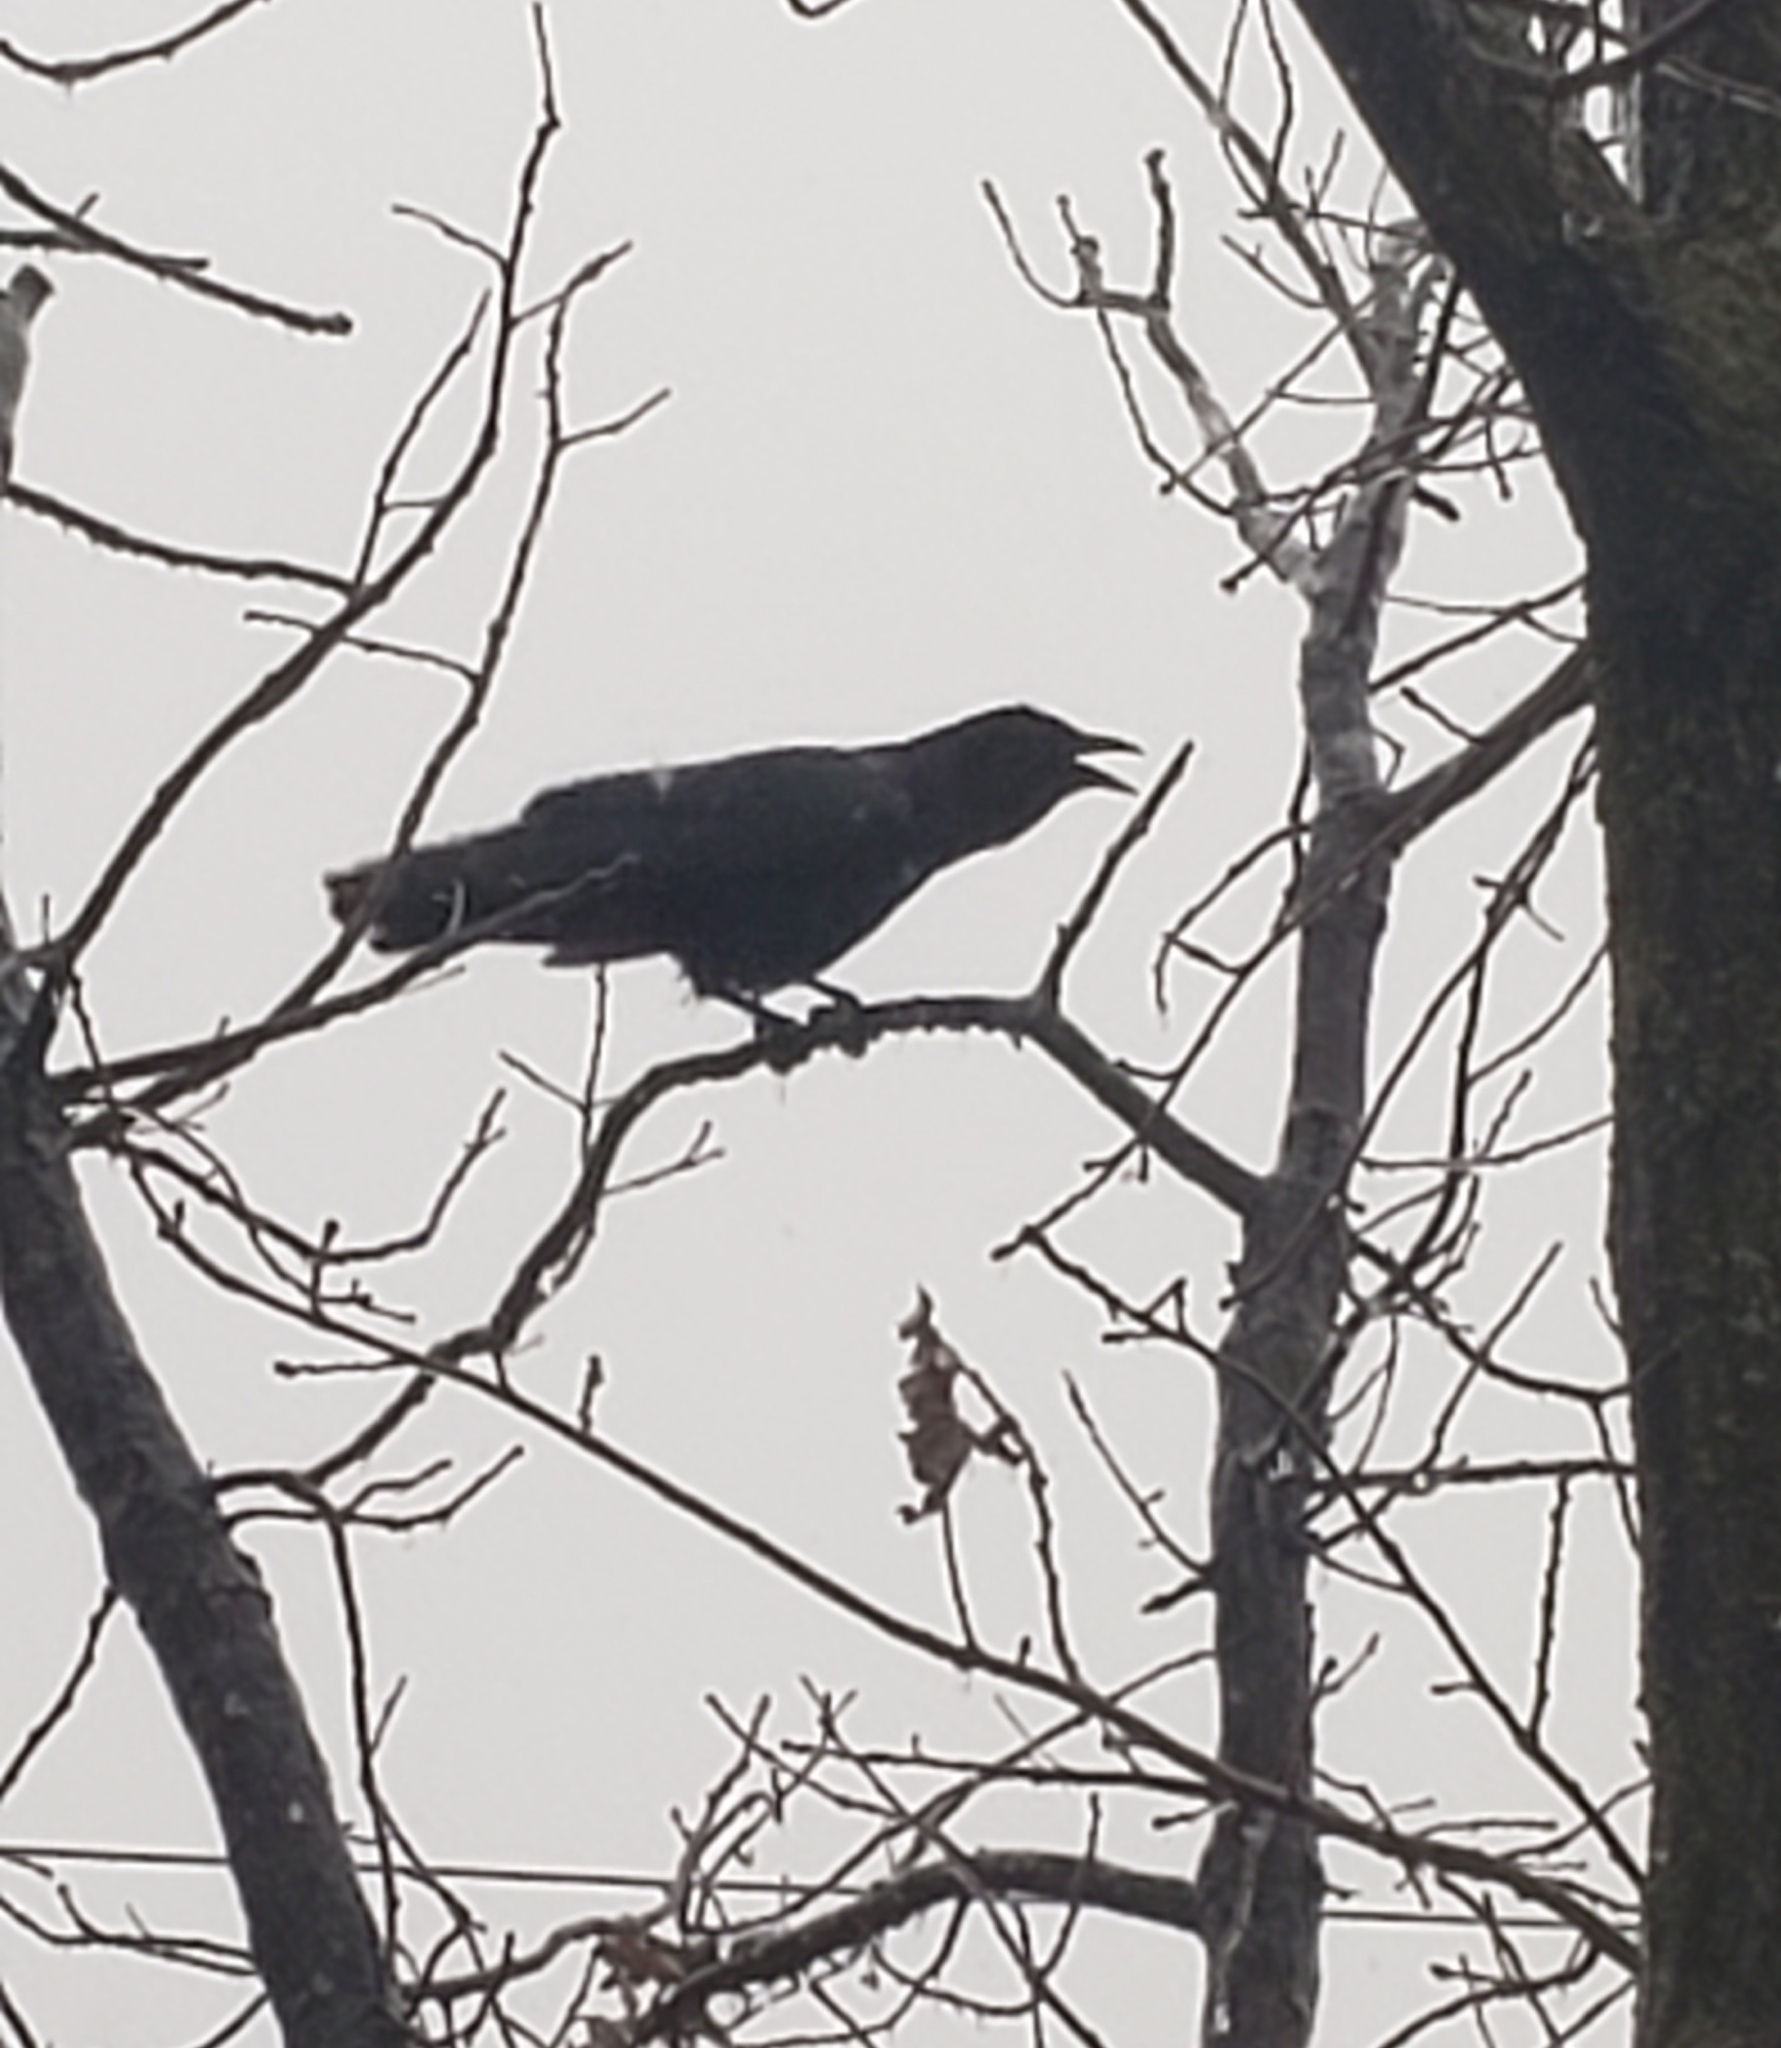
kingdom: Animalia
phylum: Chordata
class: Aves
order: Passeriformes
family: Corvidae
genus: Corvus
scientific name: Corvus brachyrhynchos
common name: American crow
